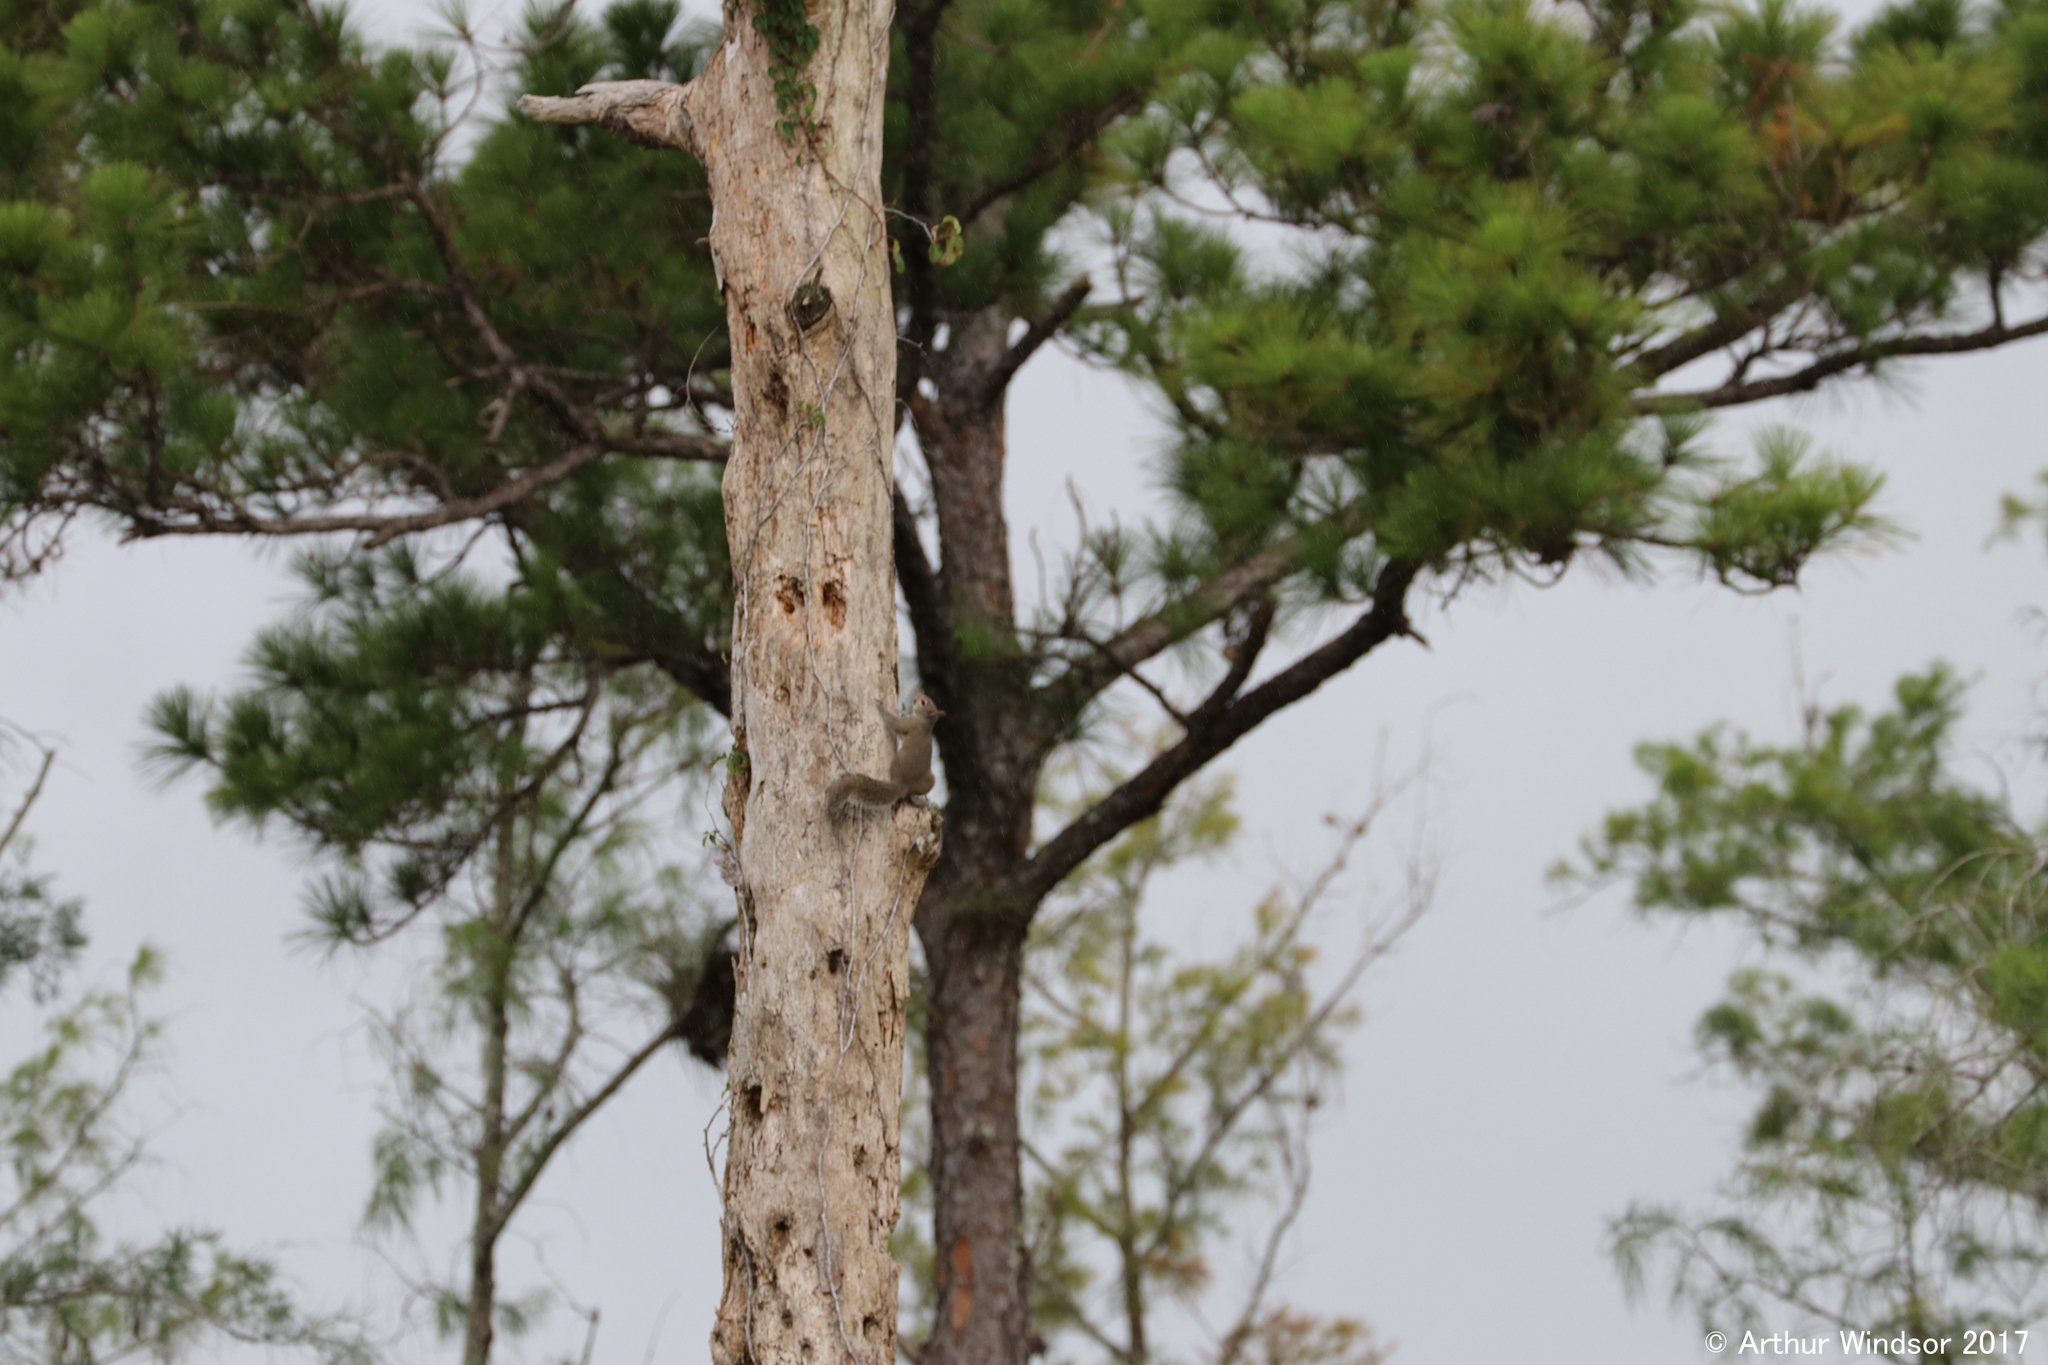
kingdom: Animalia
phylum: Chordata
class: Mammalia
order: Rodentia
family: Sciuridae
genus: Sciurus
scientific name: Sciurus carolinensis
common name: Eastern gray squirrel
